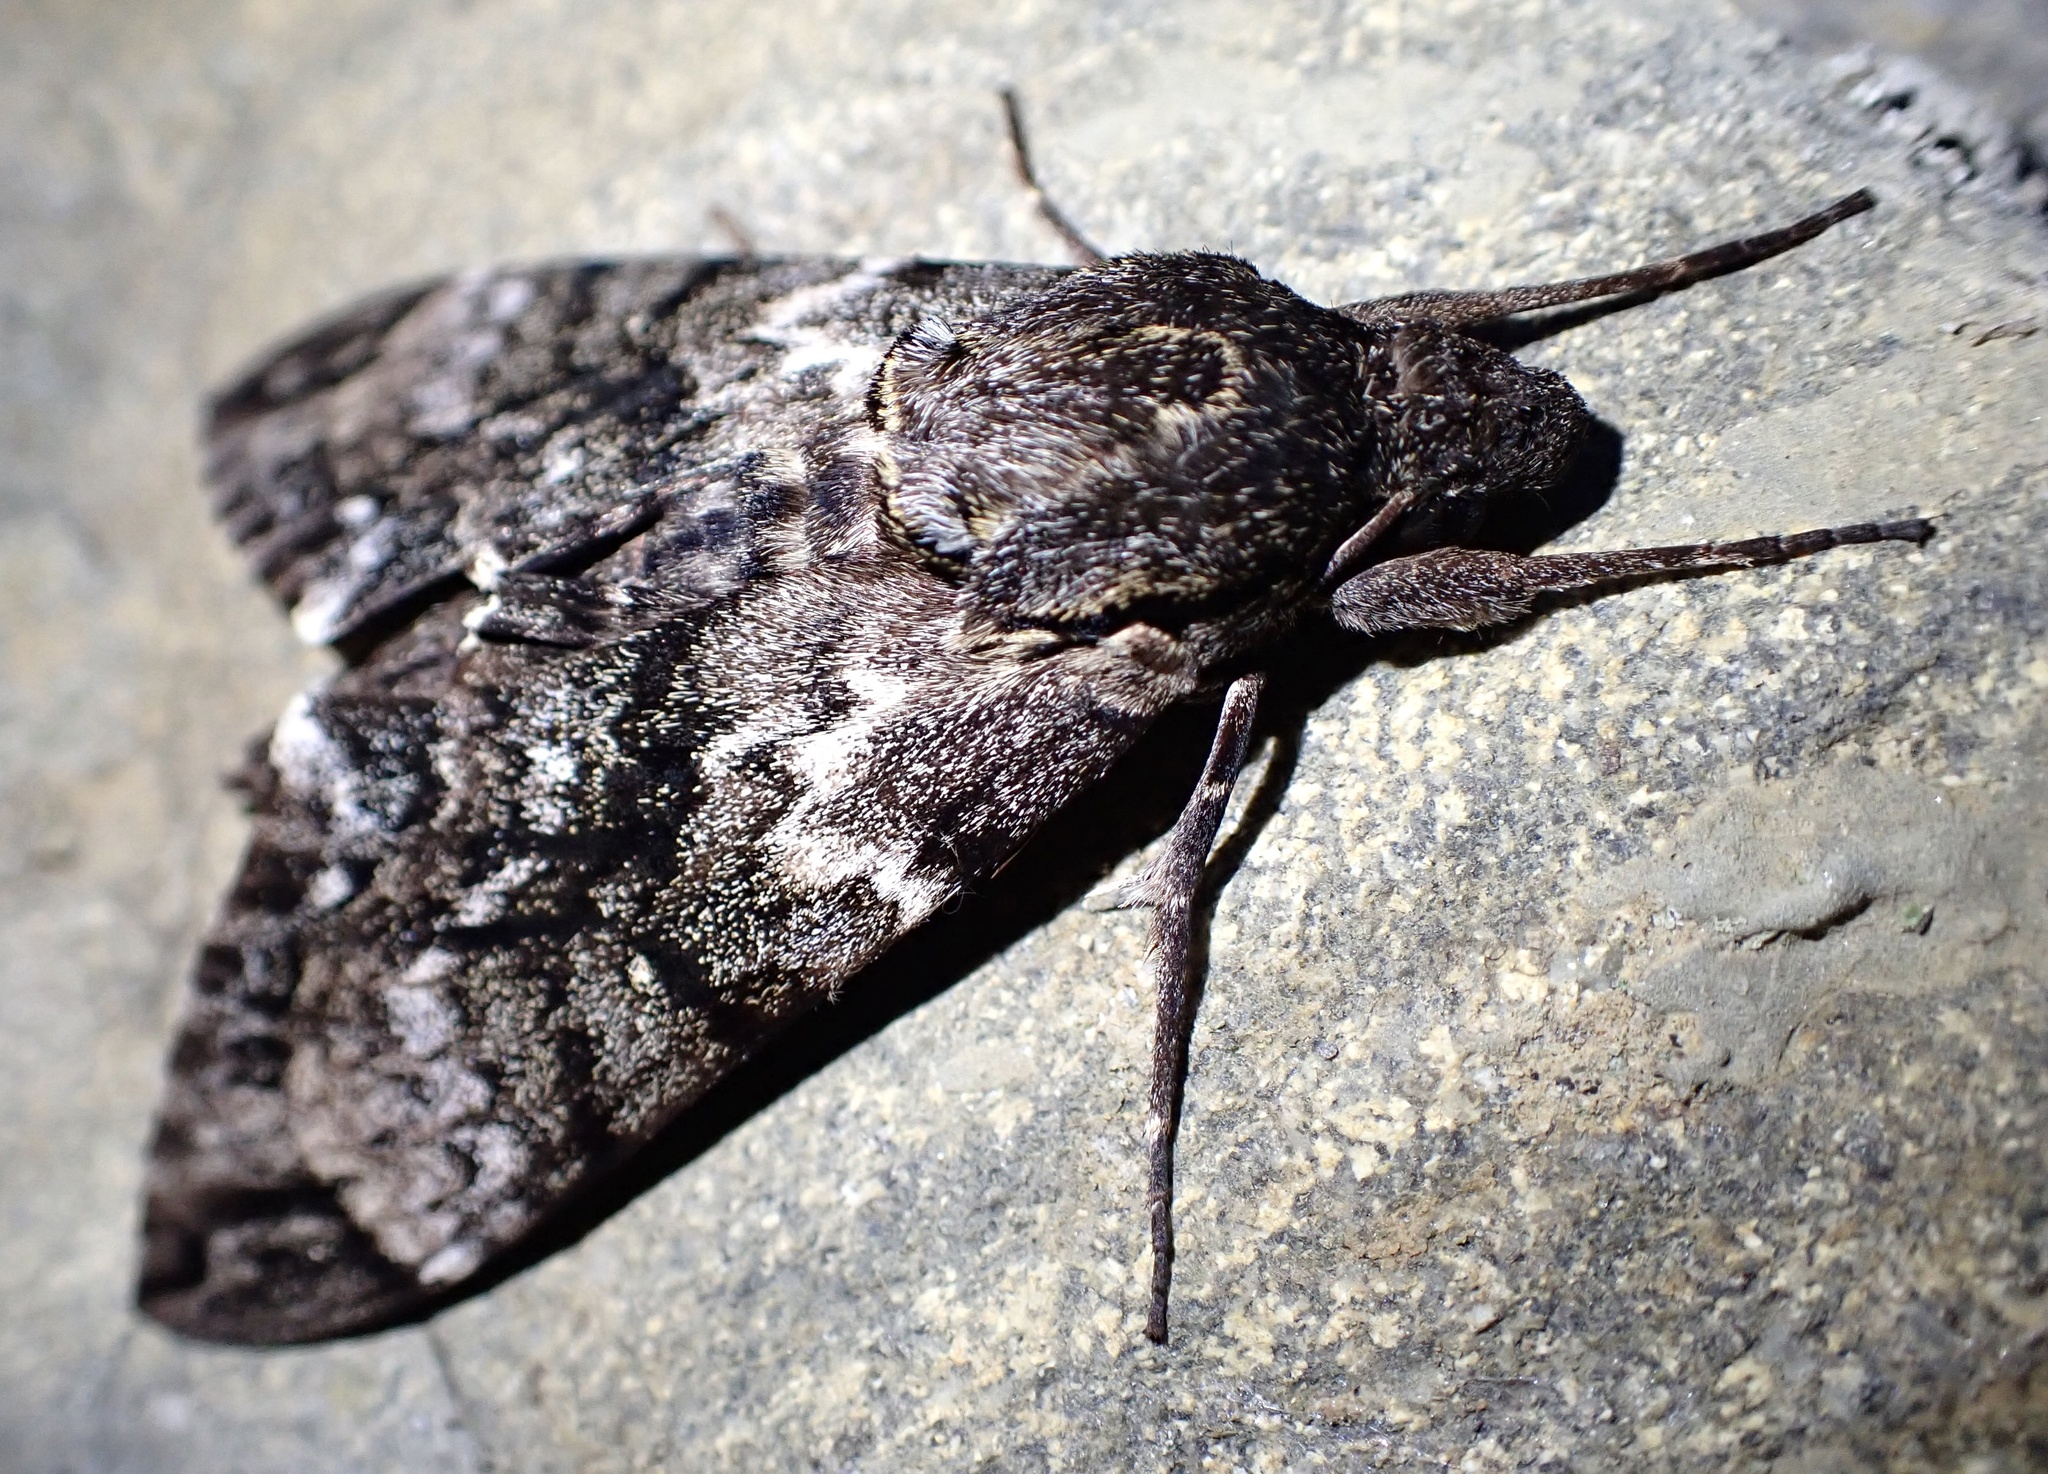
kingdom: Animalia
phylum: Arthropoda
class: Insecta
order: Lepidoptera
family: Sphingidae
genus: Psilogramma
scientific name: Psilogramma menephron
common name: Gray hawk moth
